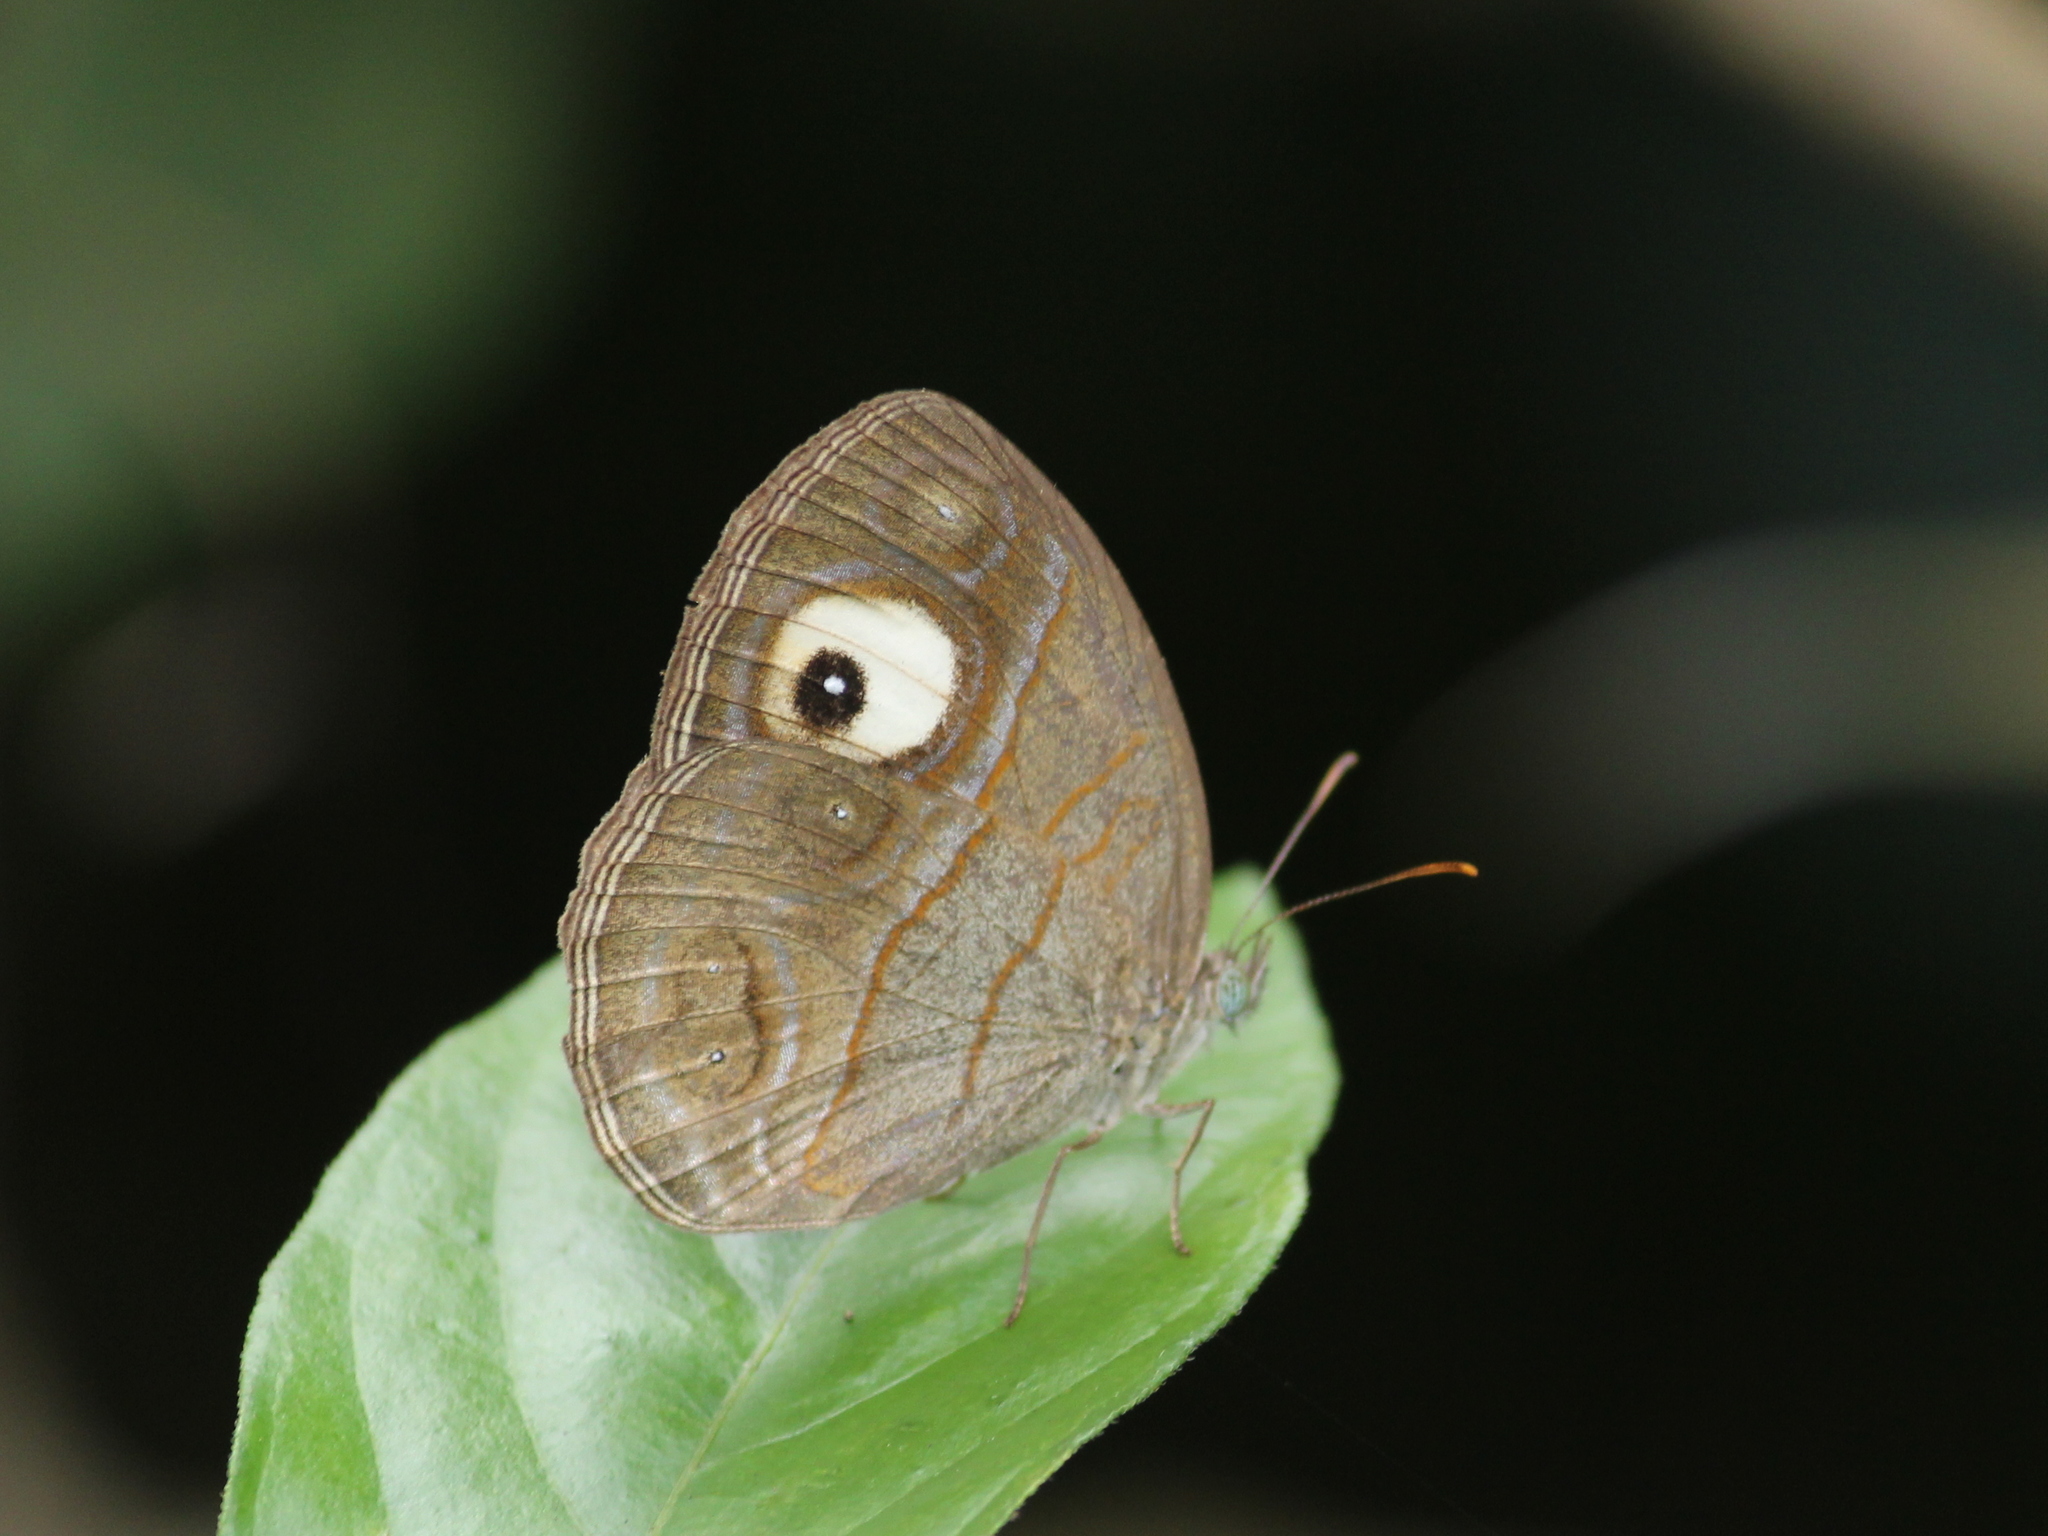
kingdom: Animalia
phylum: Arthropoda
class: Insecta
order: Lepidoptera
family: Nymphalidae
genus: Mycalesis
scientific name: Mycalesis patnia
